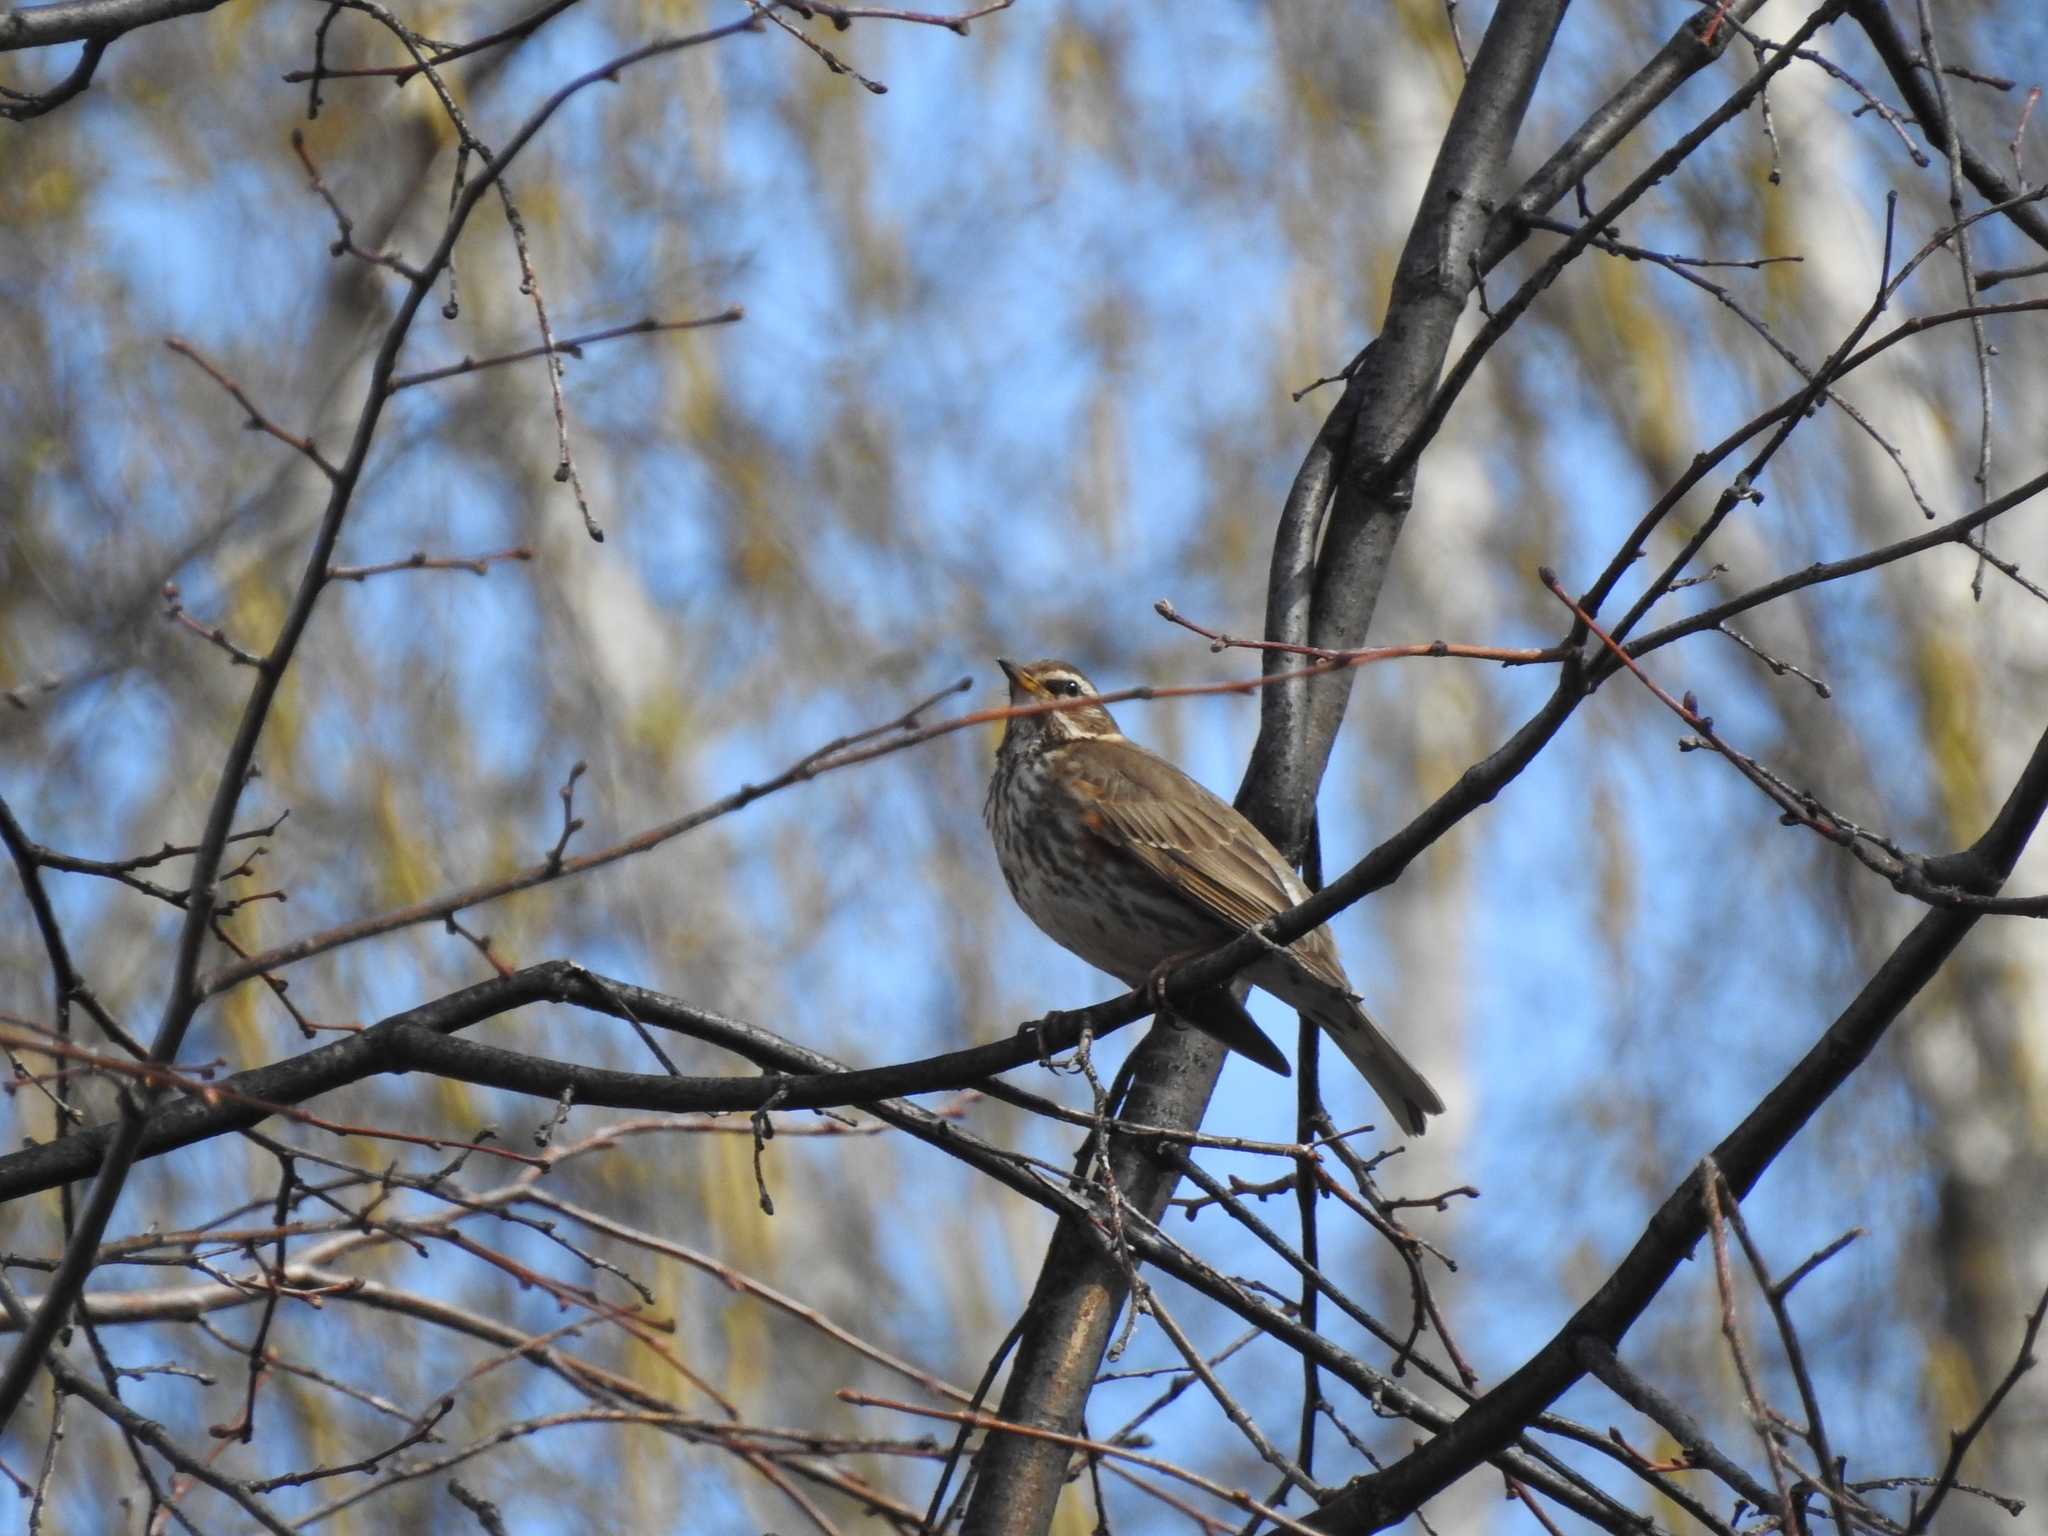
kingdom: Animalia
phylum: Chordata
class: Aves
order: Passeriformes
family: Turdidae
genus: Turdus
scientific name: Turdus iliacus
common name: Redwing
